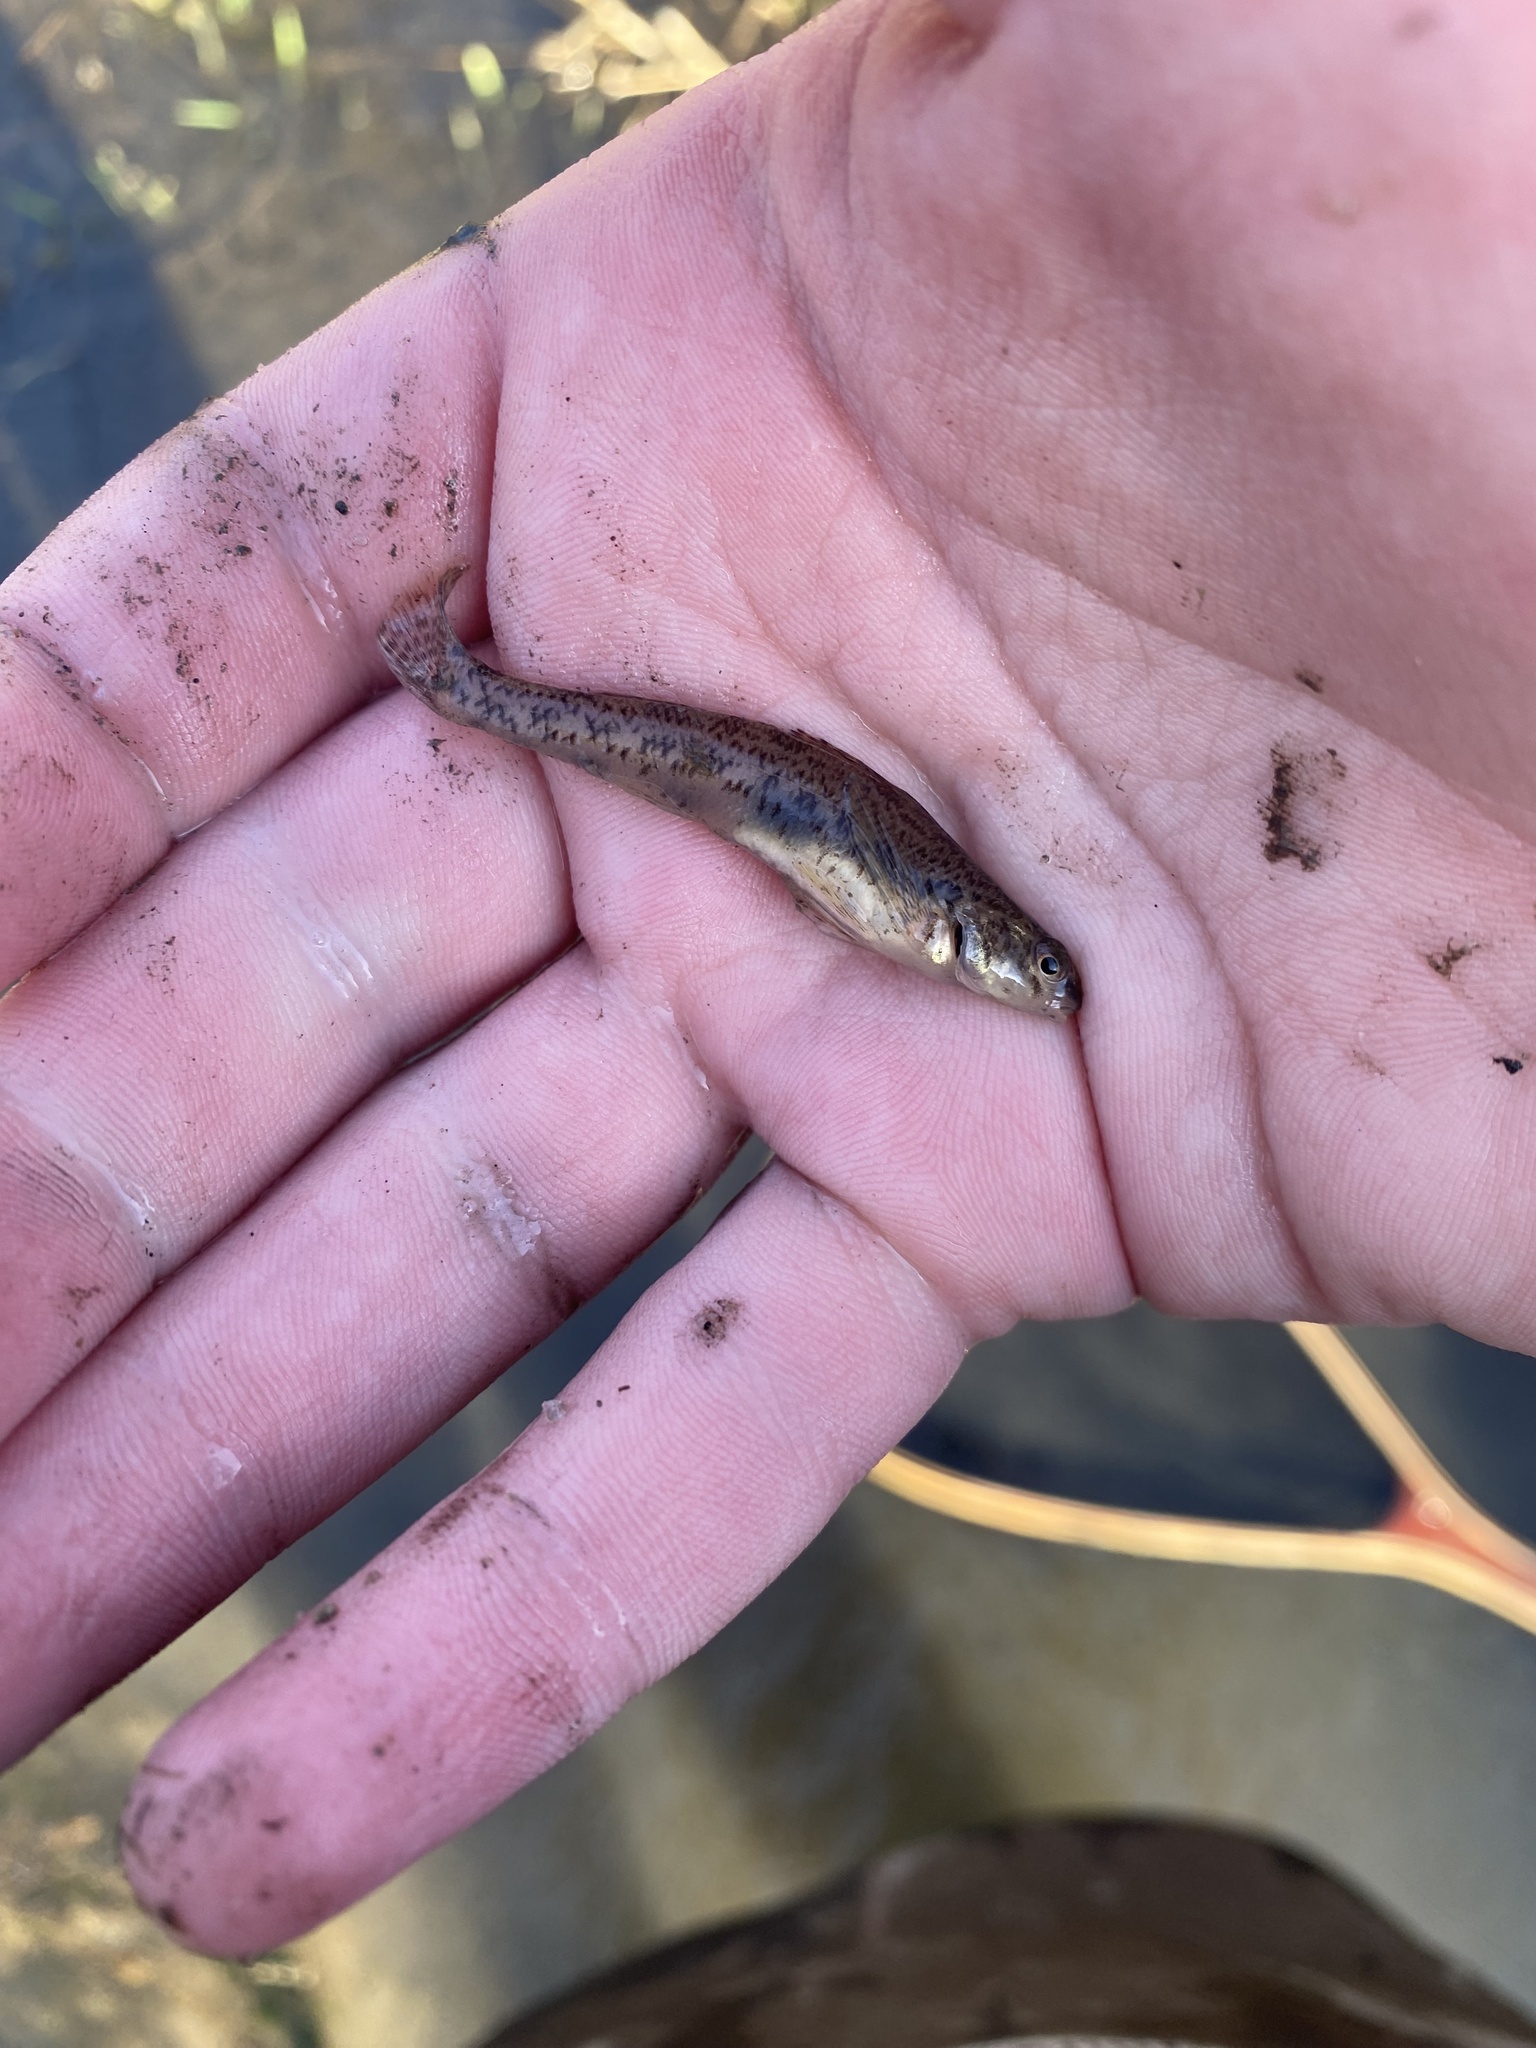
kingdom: Animalia
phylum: Chordata
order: Perciformes
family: Percidae
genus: Etheostoma
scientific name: Etheostoma nigrum
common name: Johnny darter
